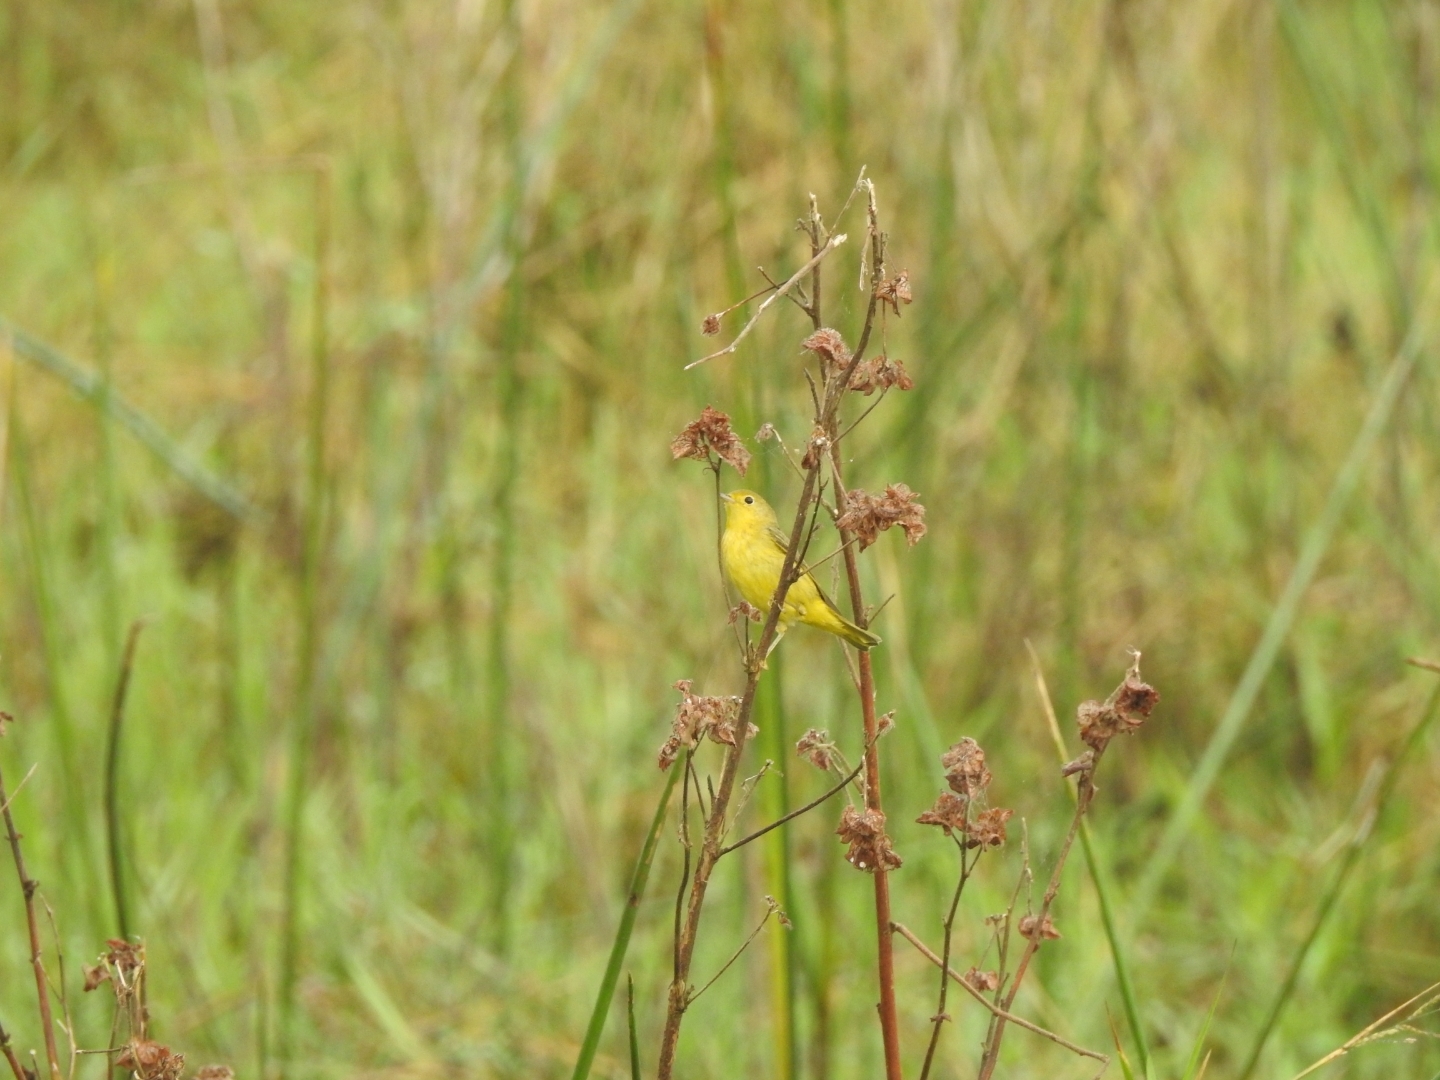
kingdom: Animalia
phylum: Chordata
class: Aves
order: Passeriformes
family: Parulidae
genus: Setophaga
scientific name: Setophaga petechia
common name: Yellow warbler
